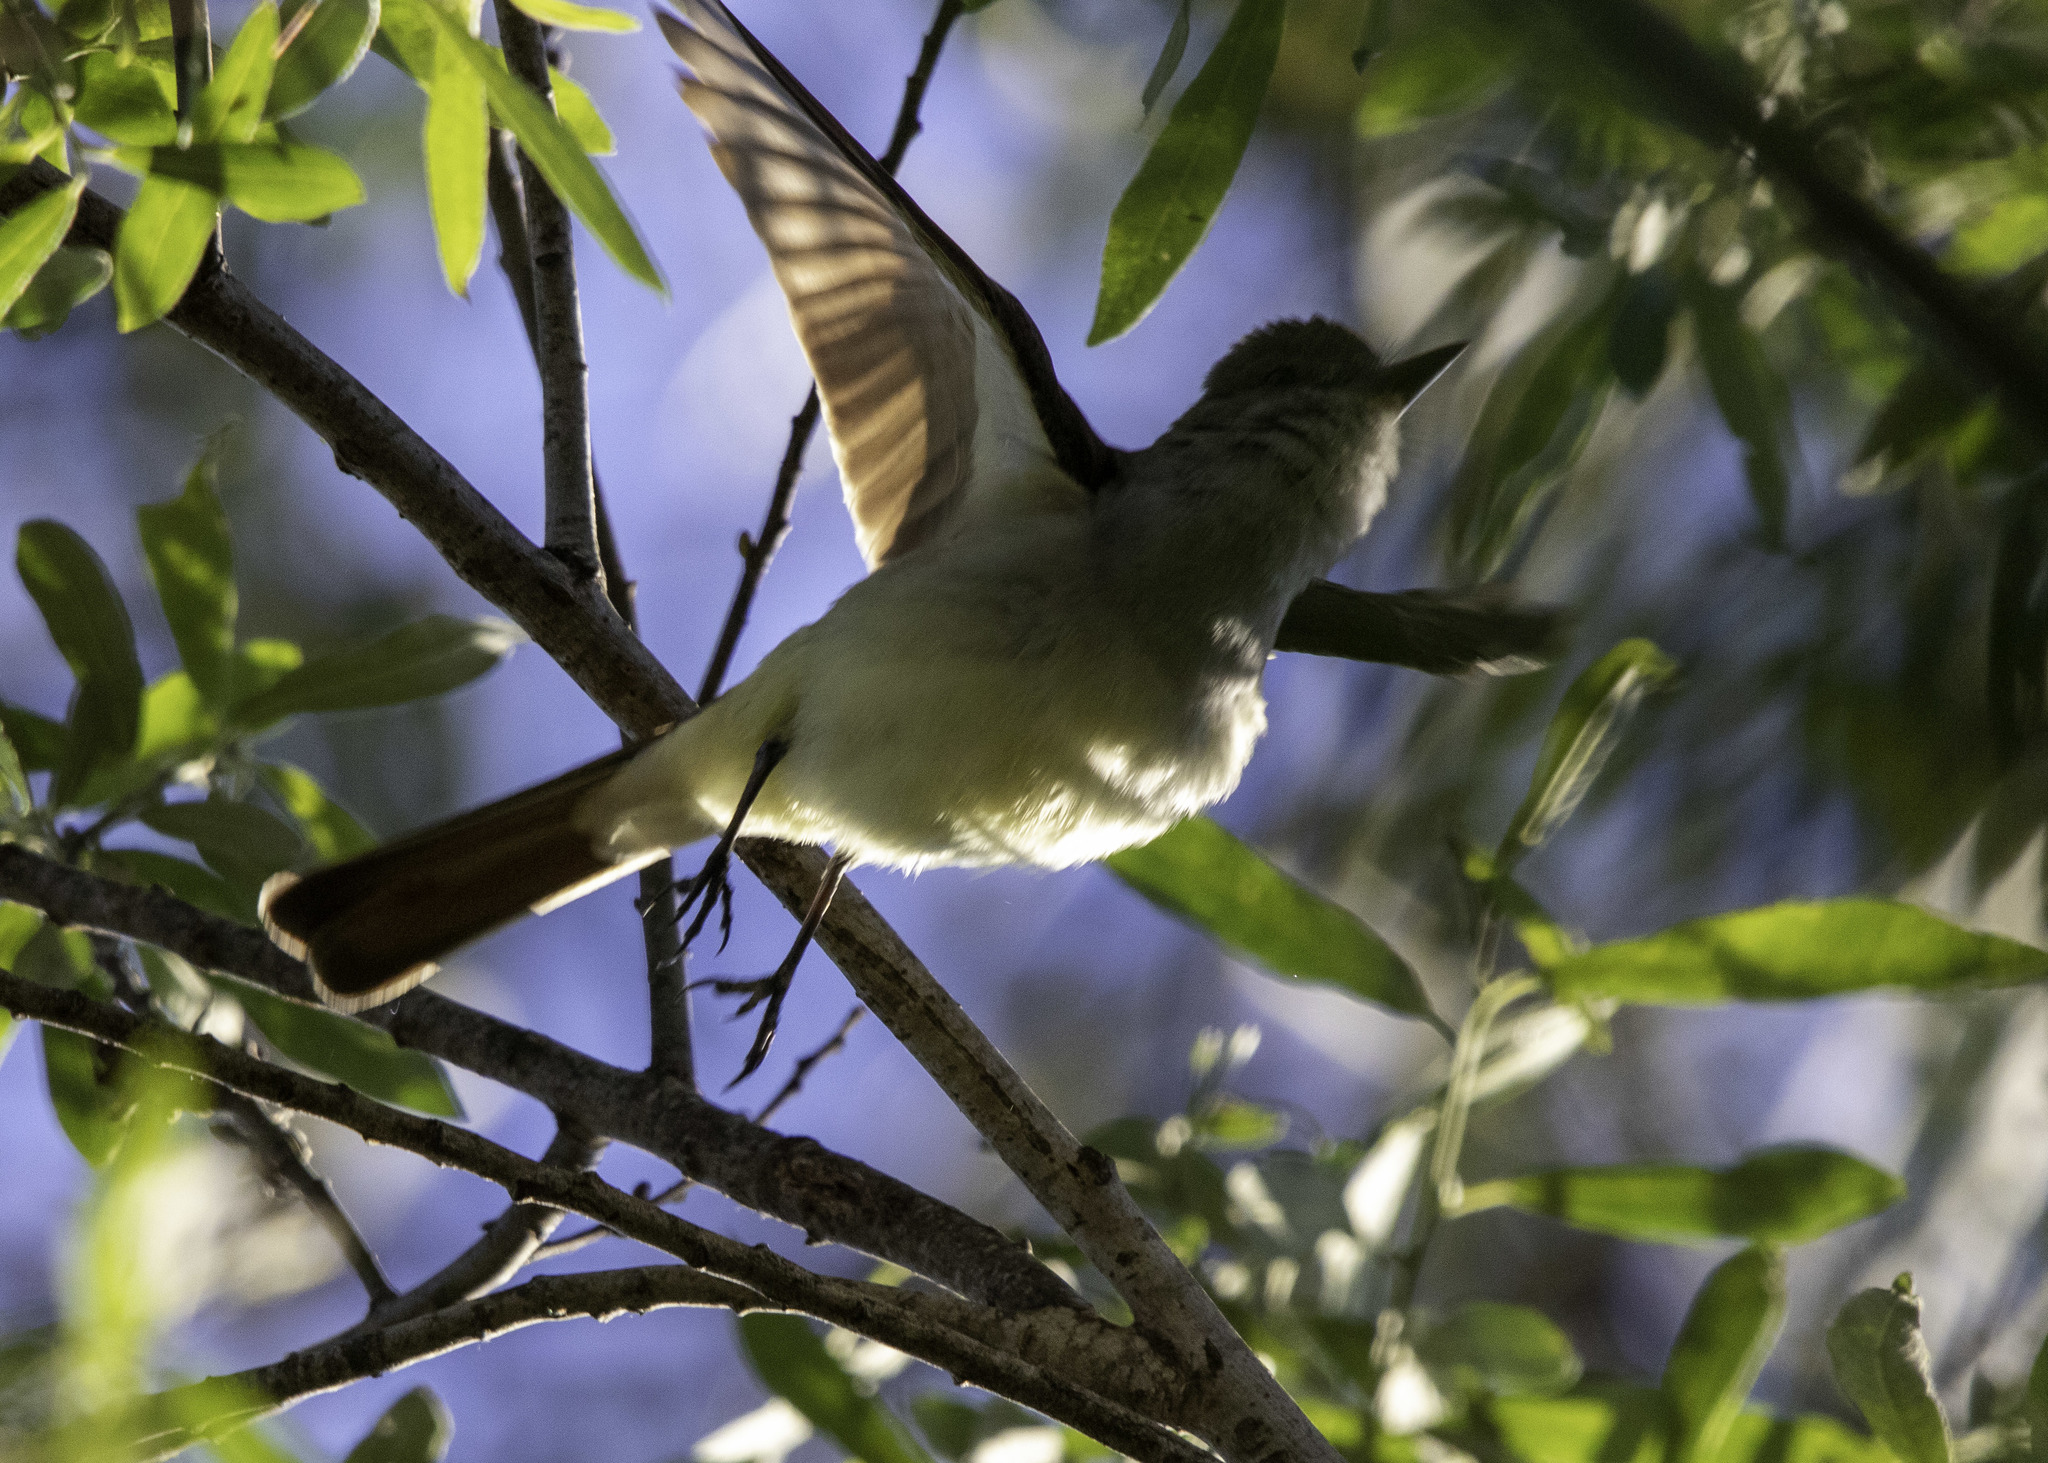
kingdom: Animalia
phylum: Chordata
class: Aves
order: Passeriformes
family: Tyrannidae
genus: Myiarchus
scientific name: Myiarchus cinerascens
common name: Ash-throated flycatcher
